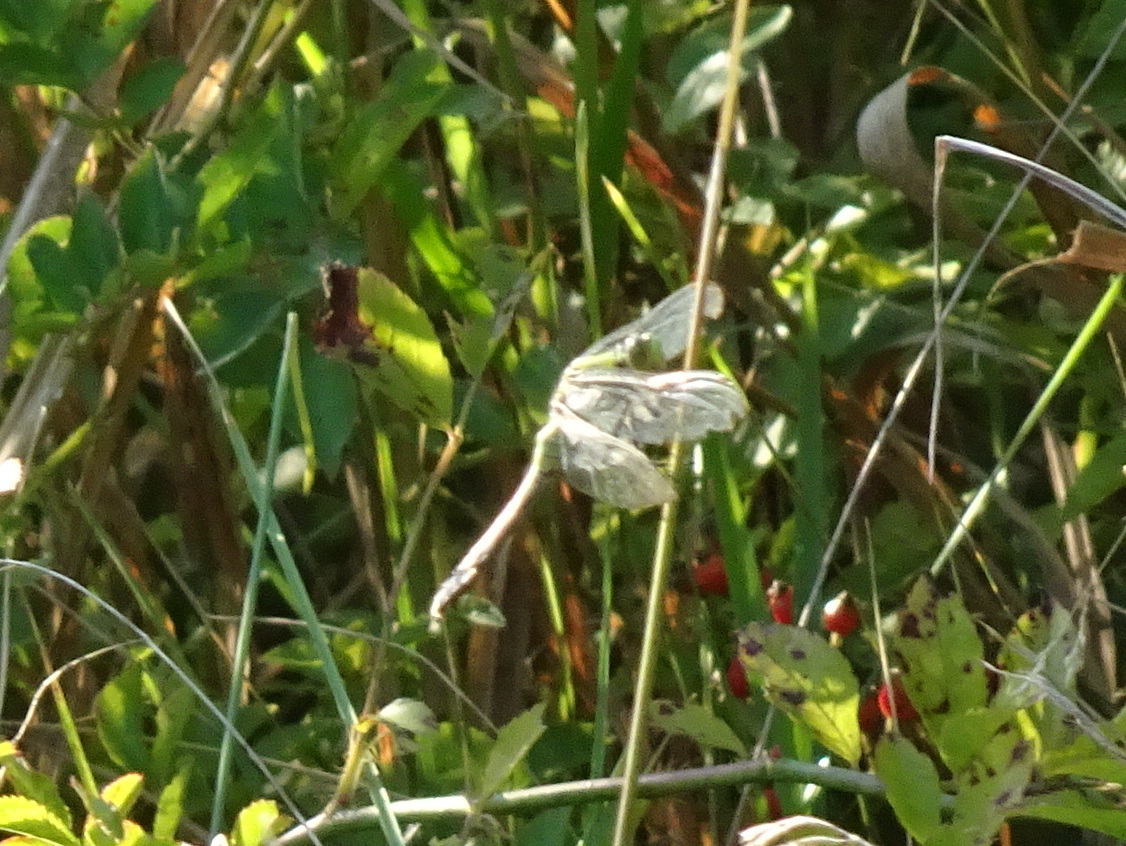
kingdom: Animalia
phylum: Arthropoda
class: Insecta
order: Odonata
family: Libellulidae
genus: Erythemis
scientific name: Erythemis simplicicollis
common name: Eastern pondhawk
